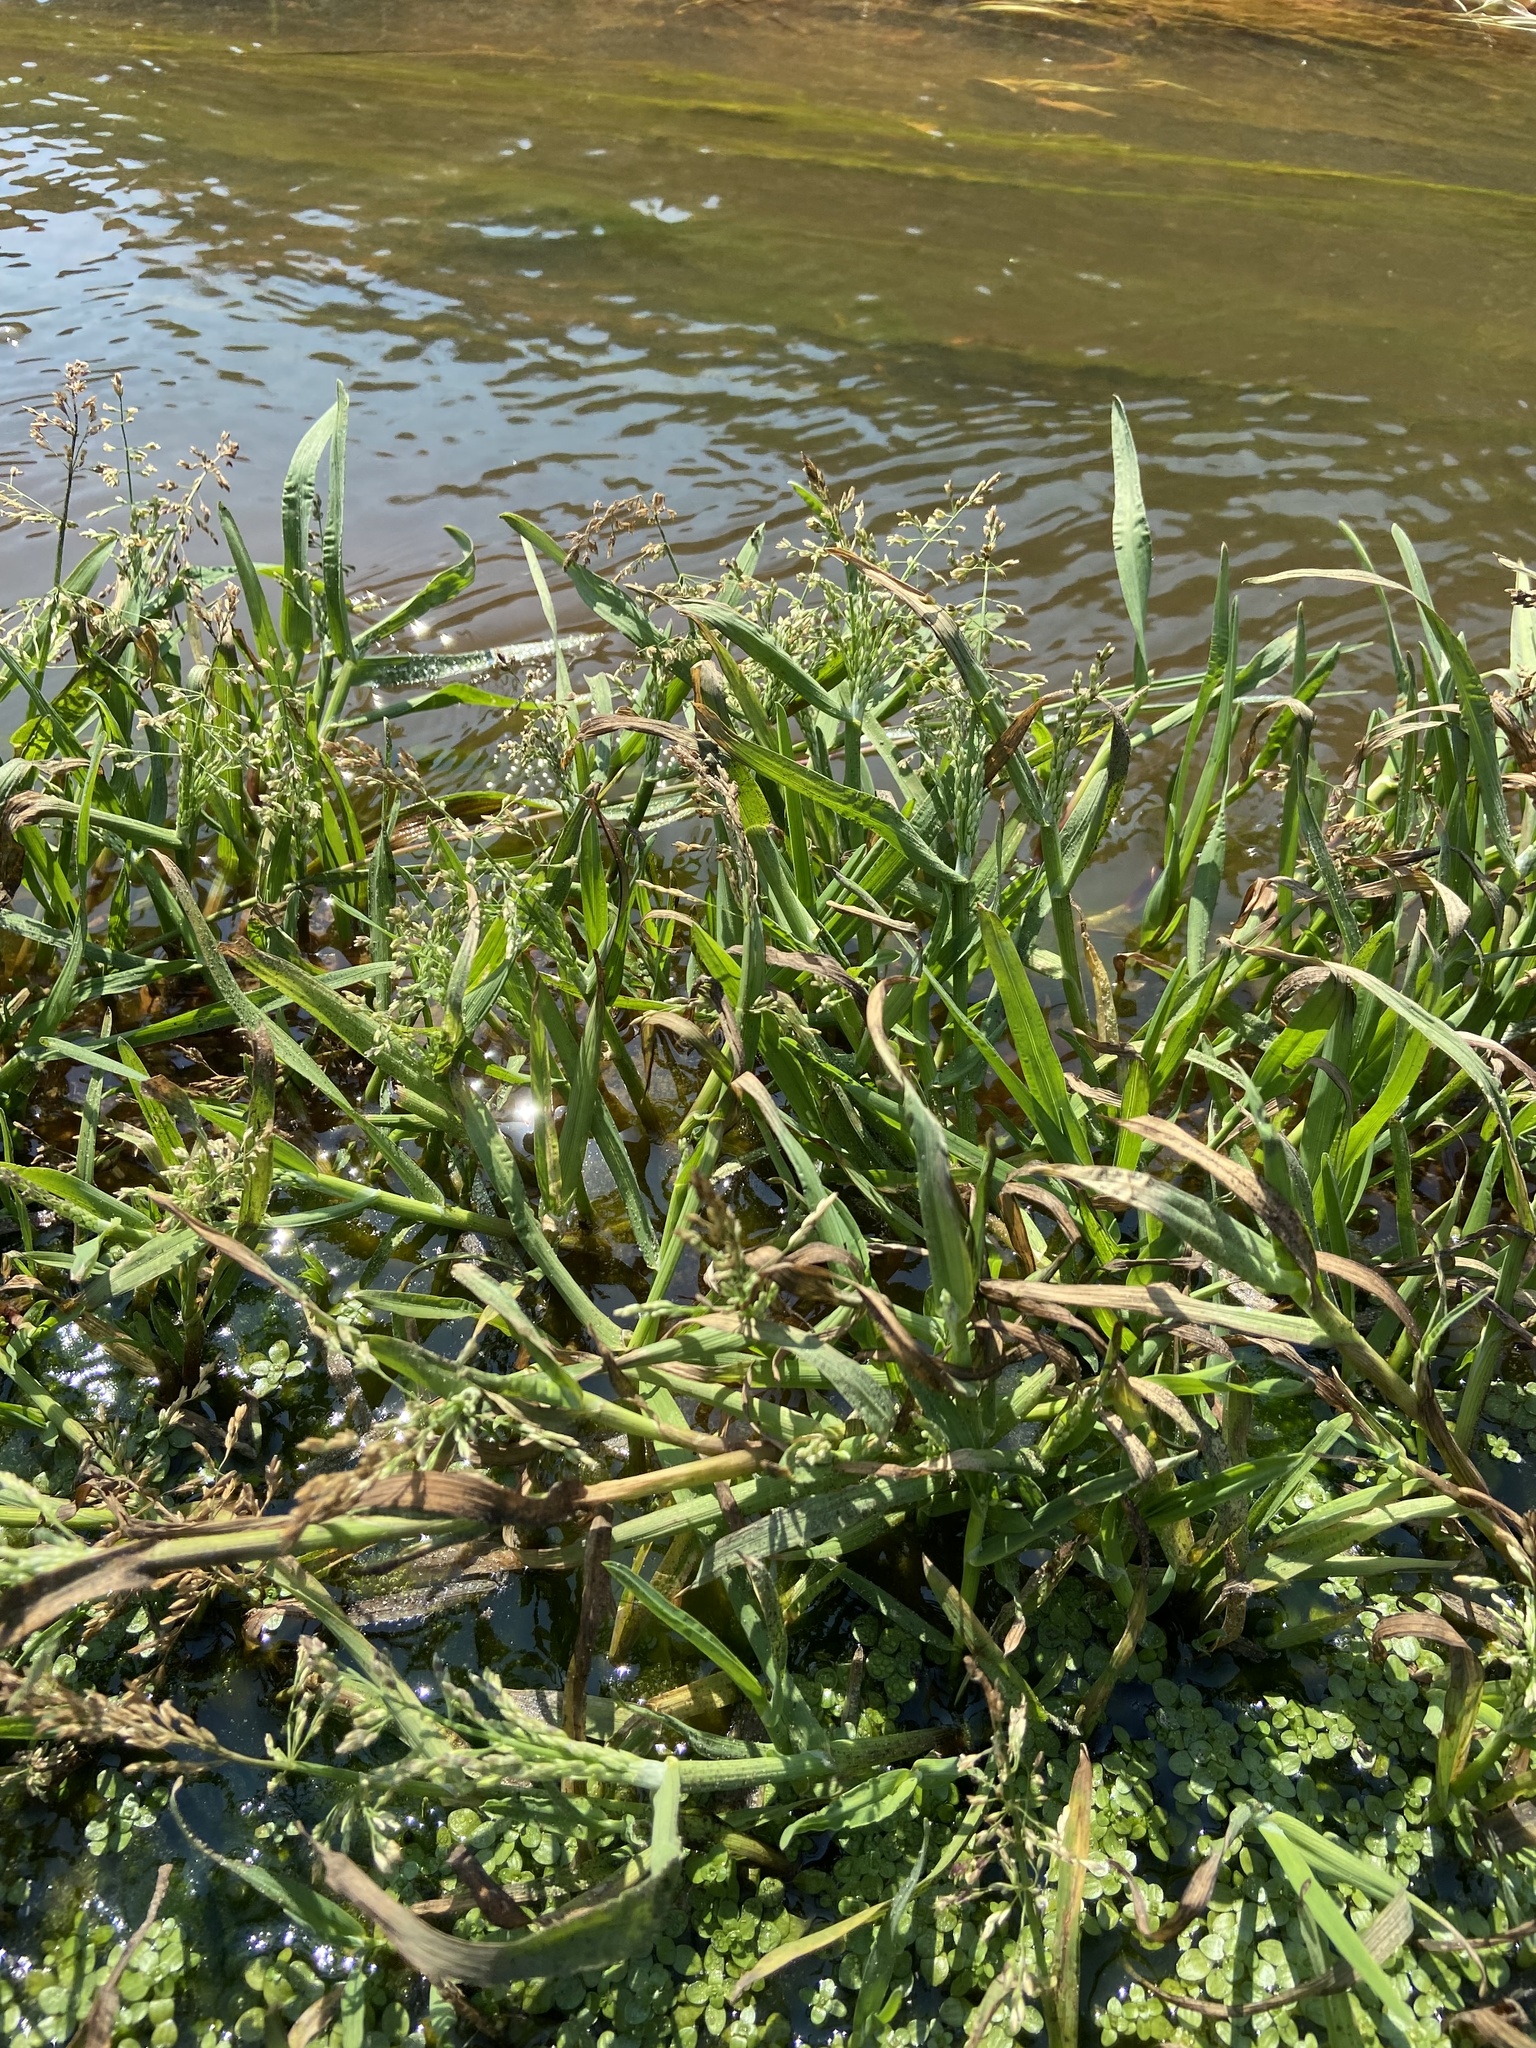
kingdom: Plantae
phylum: Tracheophyta
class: Liliopsida
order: Poales
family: Poaceae
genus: Catabrosa
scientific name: Catabrosa aquatica
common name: Whorl-grass
